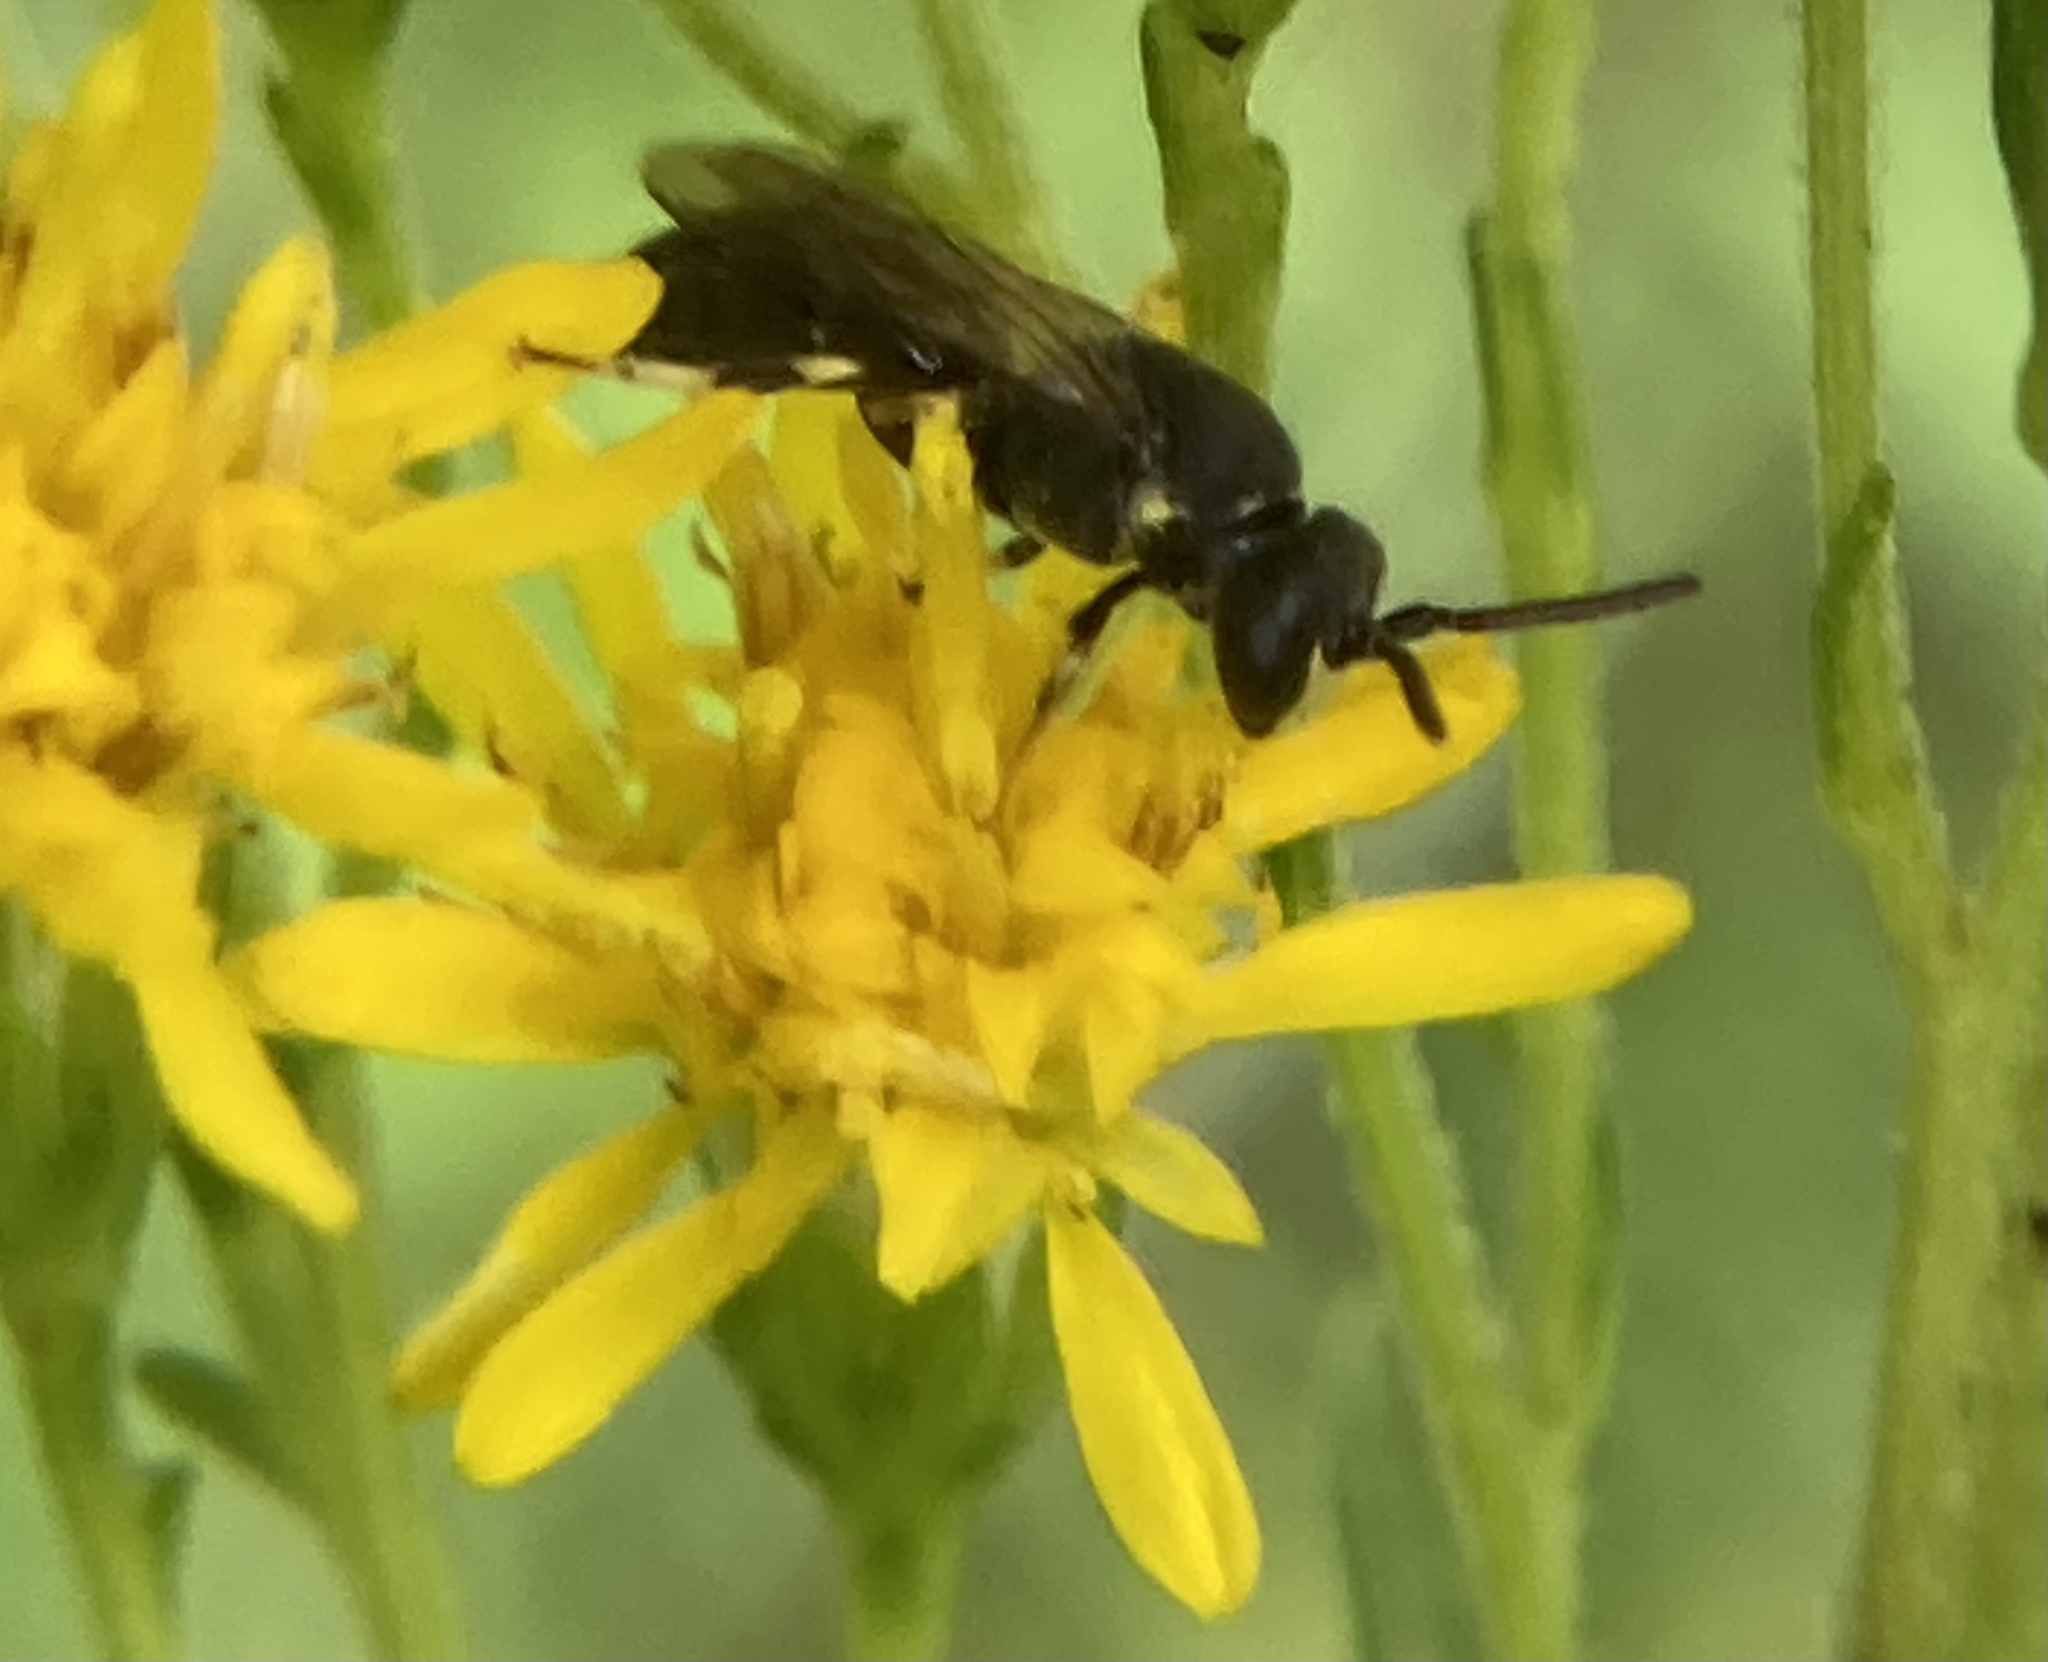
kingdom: Animalia
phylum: Arthropoda
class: Insecta
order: Hymenoptera
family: Colletidae
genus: Prosopis
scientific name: Prosopis
